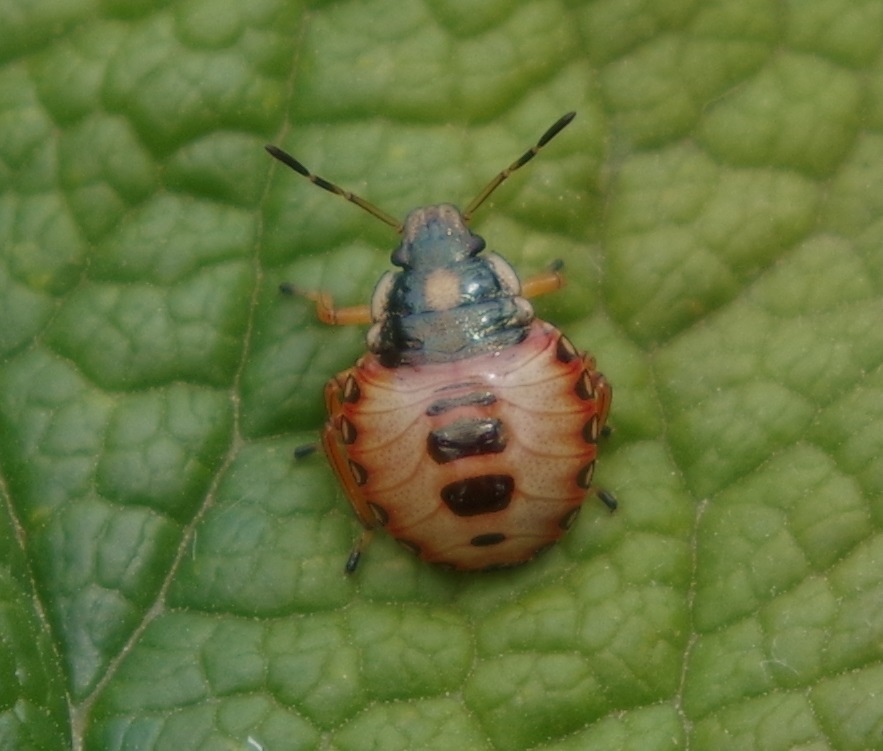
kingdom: Animalia
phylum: Arthropoda
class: Insecta
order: Hemiptera
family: Pentatomidae
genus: Arma
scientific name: Arma custos
